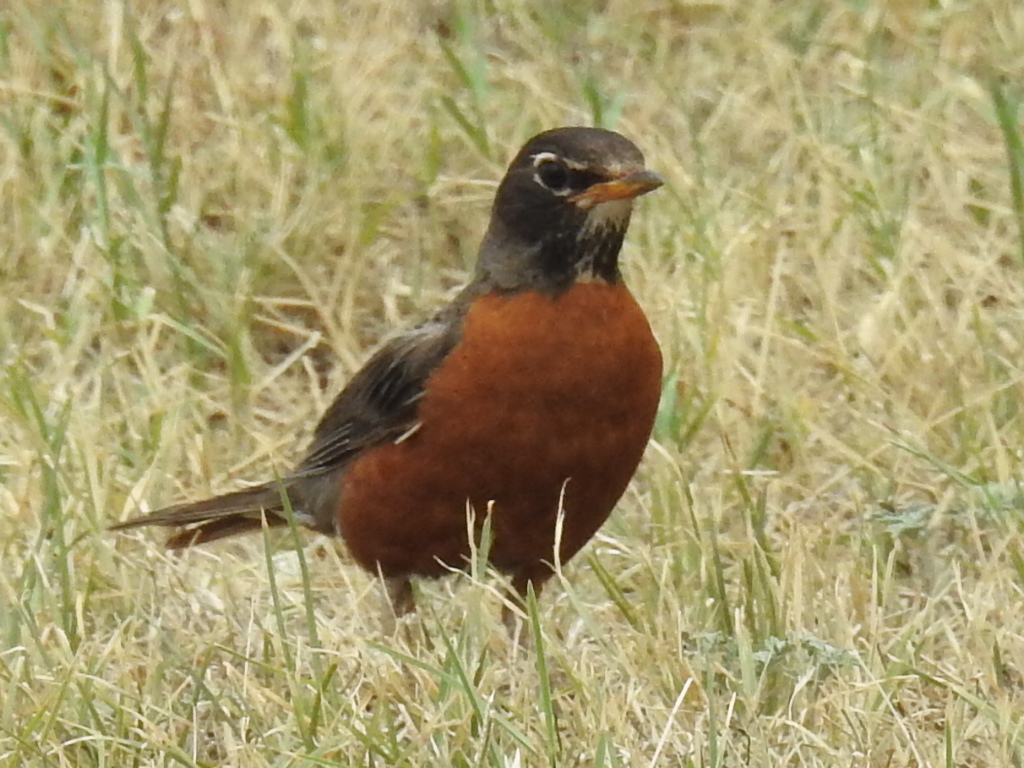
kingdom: Animalia
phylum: Chordata
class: Aves
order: Passeriformes
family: Turdidae
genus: Turdus
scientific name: Turdus migratorius
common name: American robin
